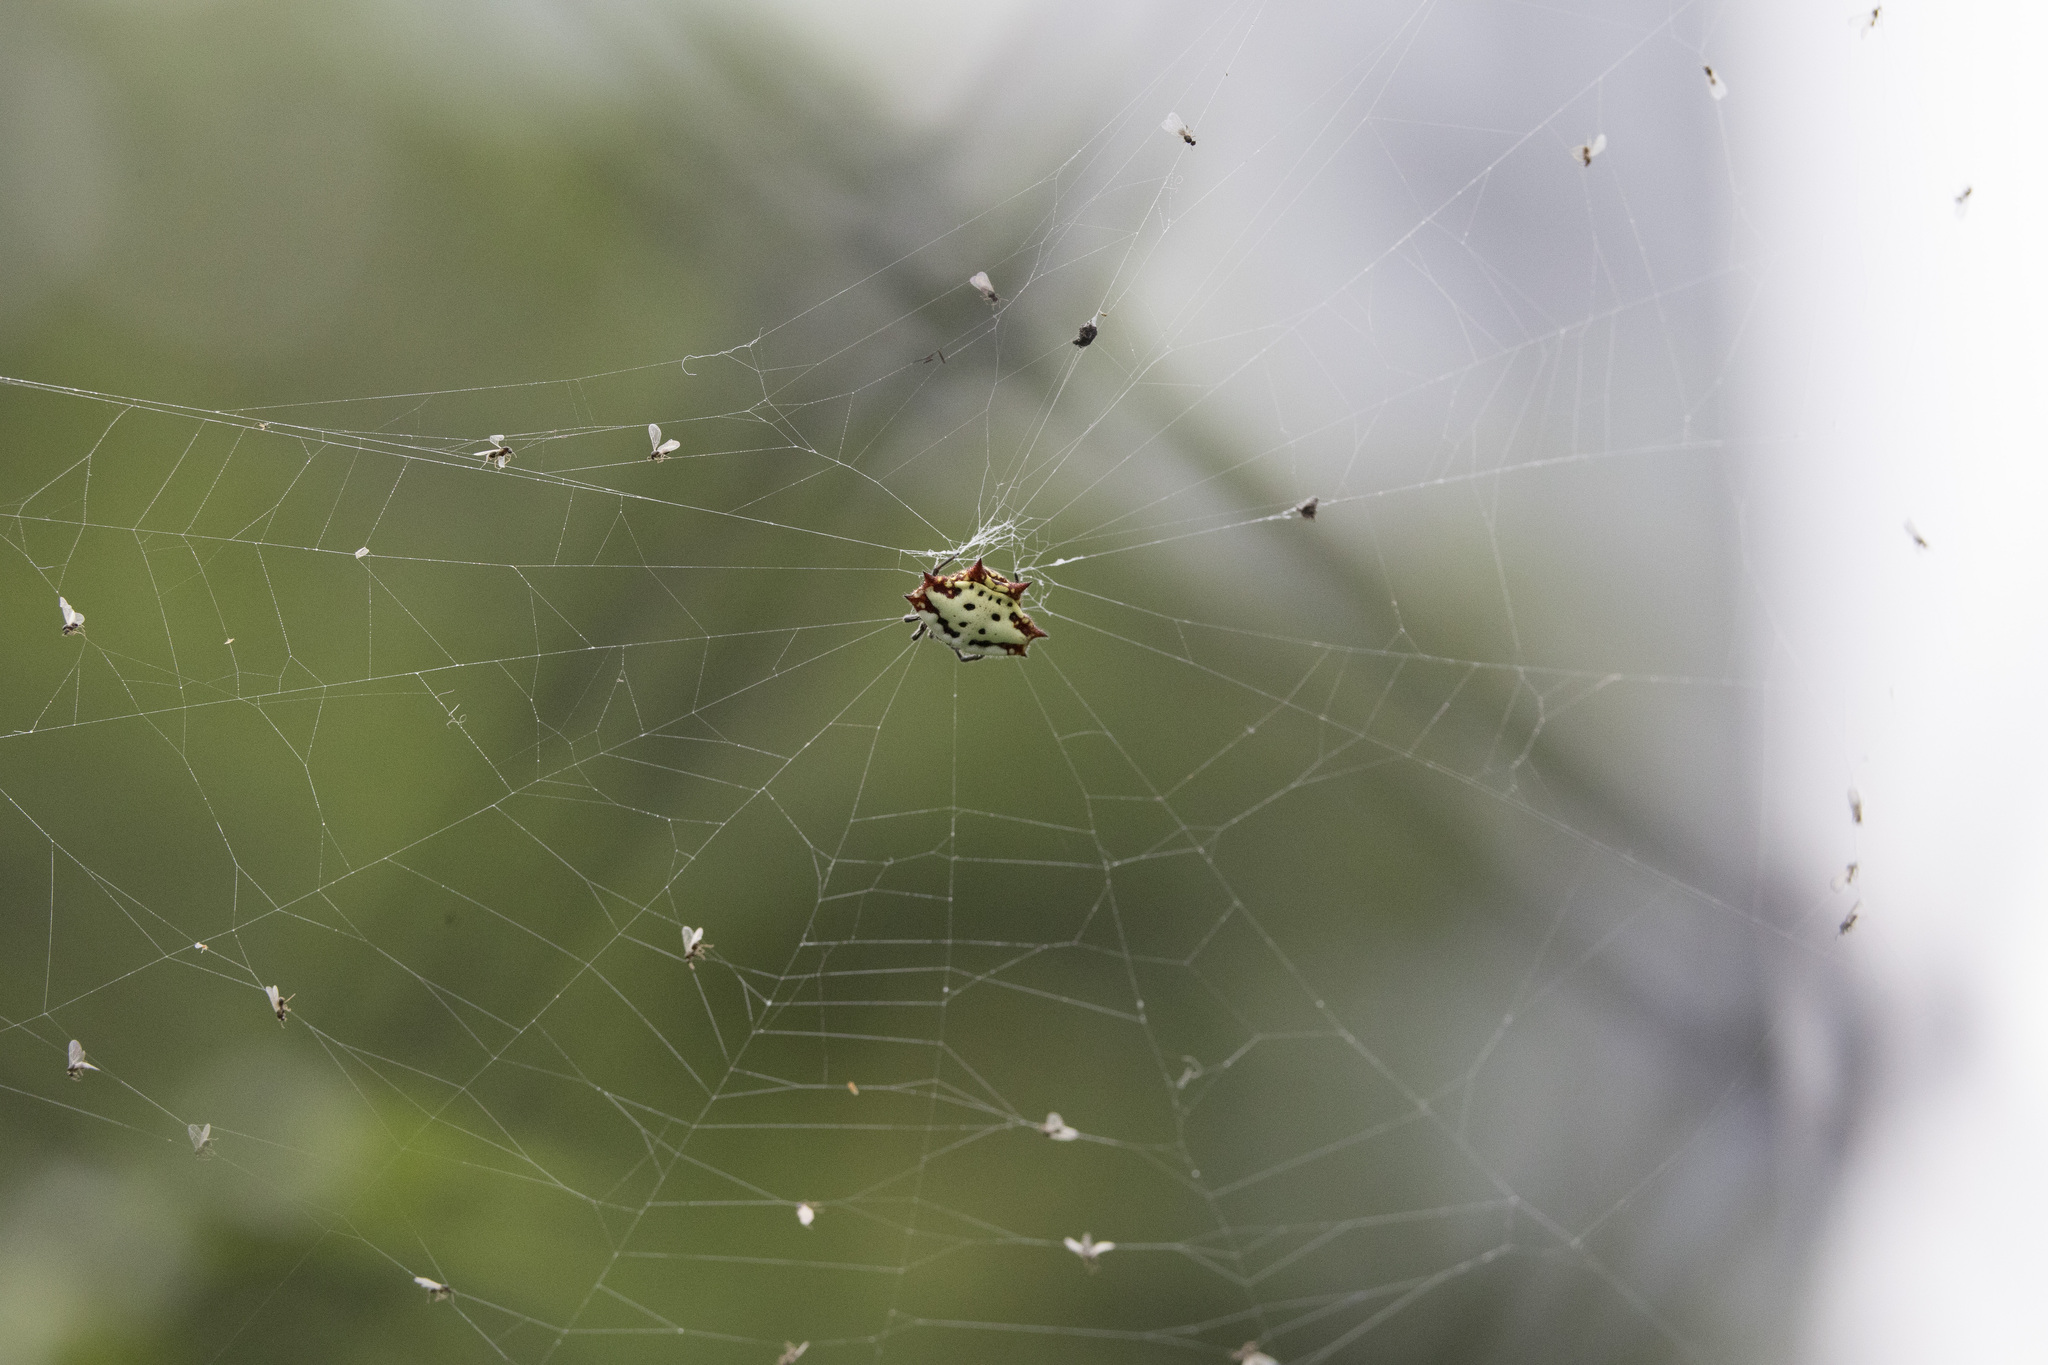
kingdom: Animalia
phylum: Arthropoda
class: Arachnida
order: Araneae
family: Araneidae
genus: Gasteracantha
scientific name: Gasteracantha cancriformis
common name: Orb weavers
